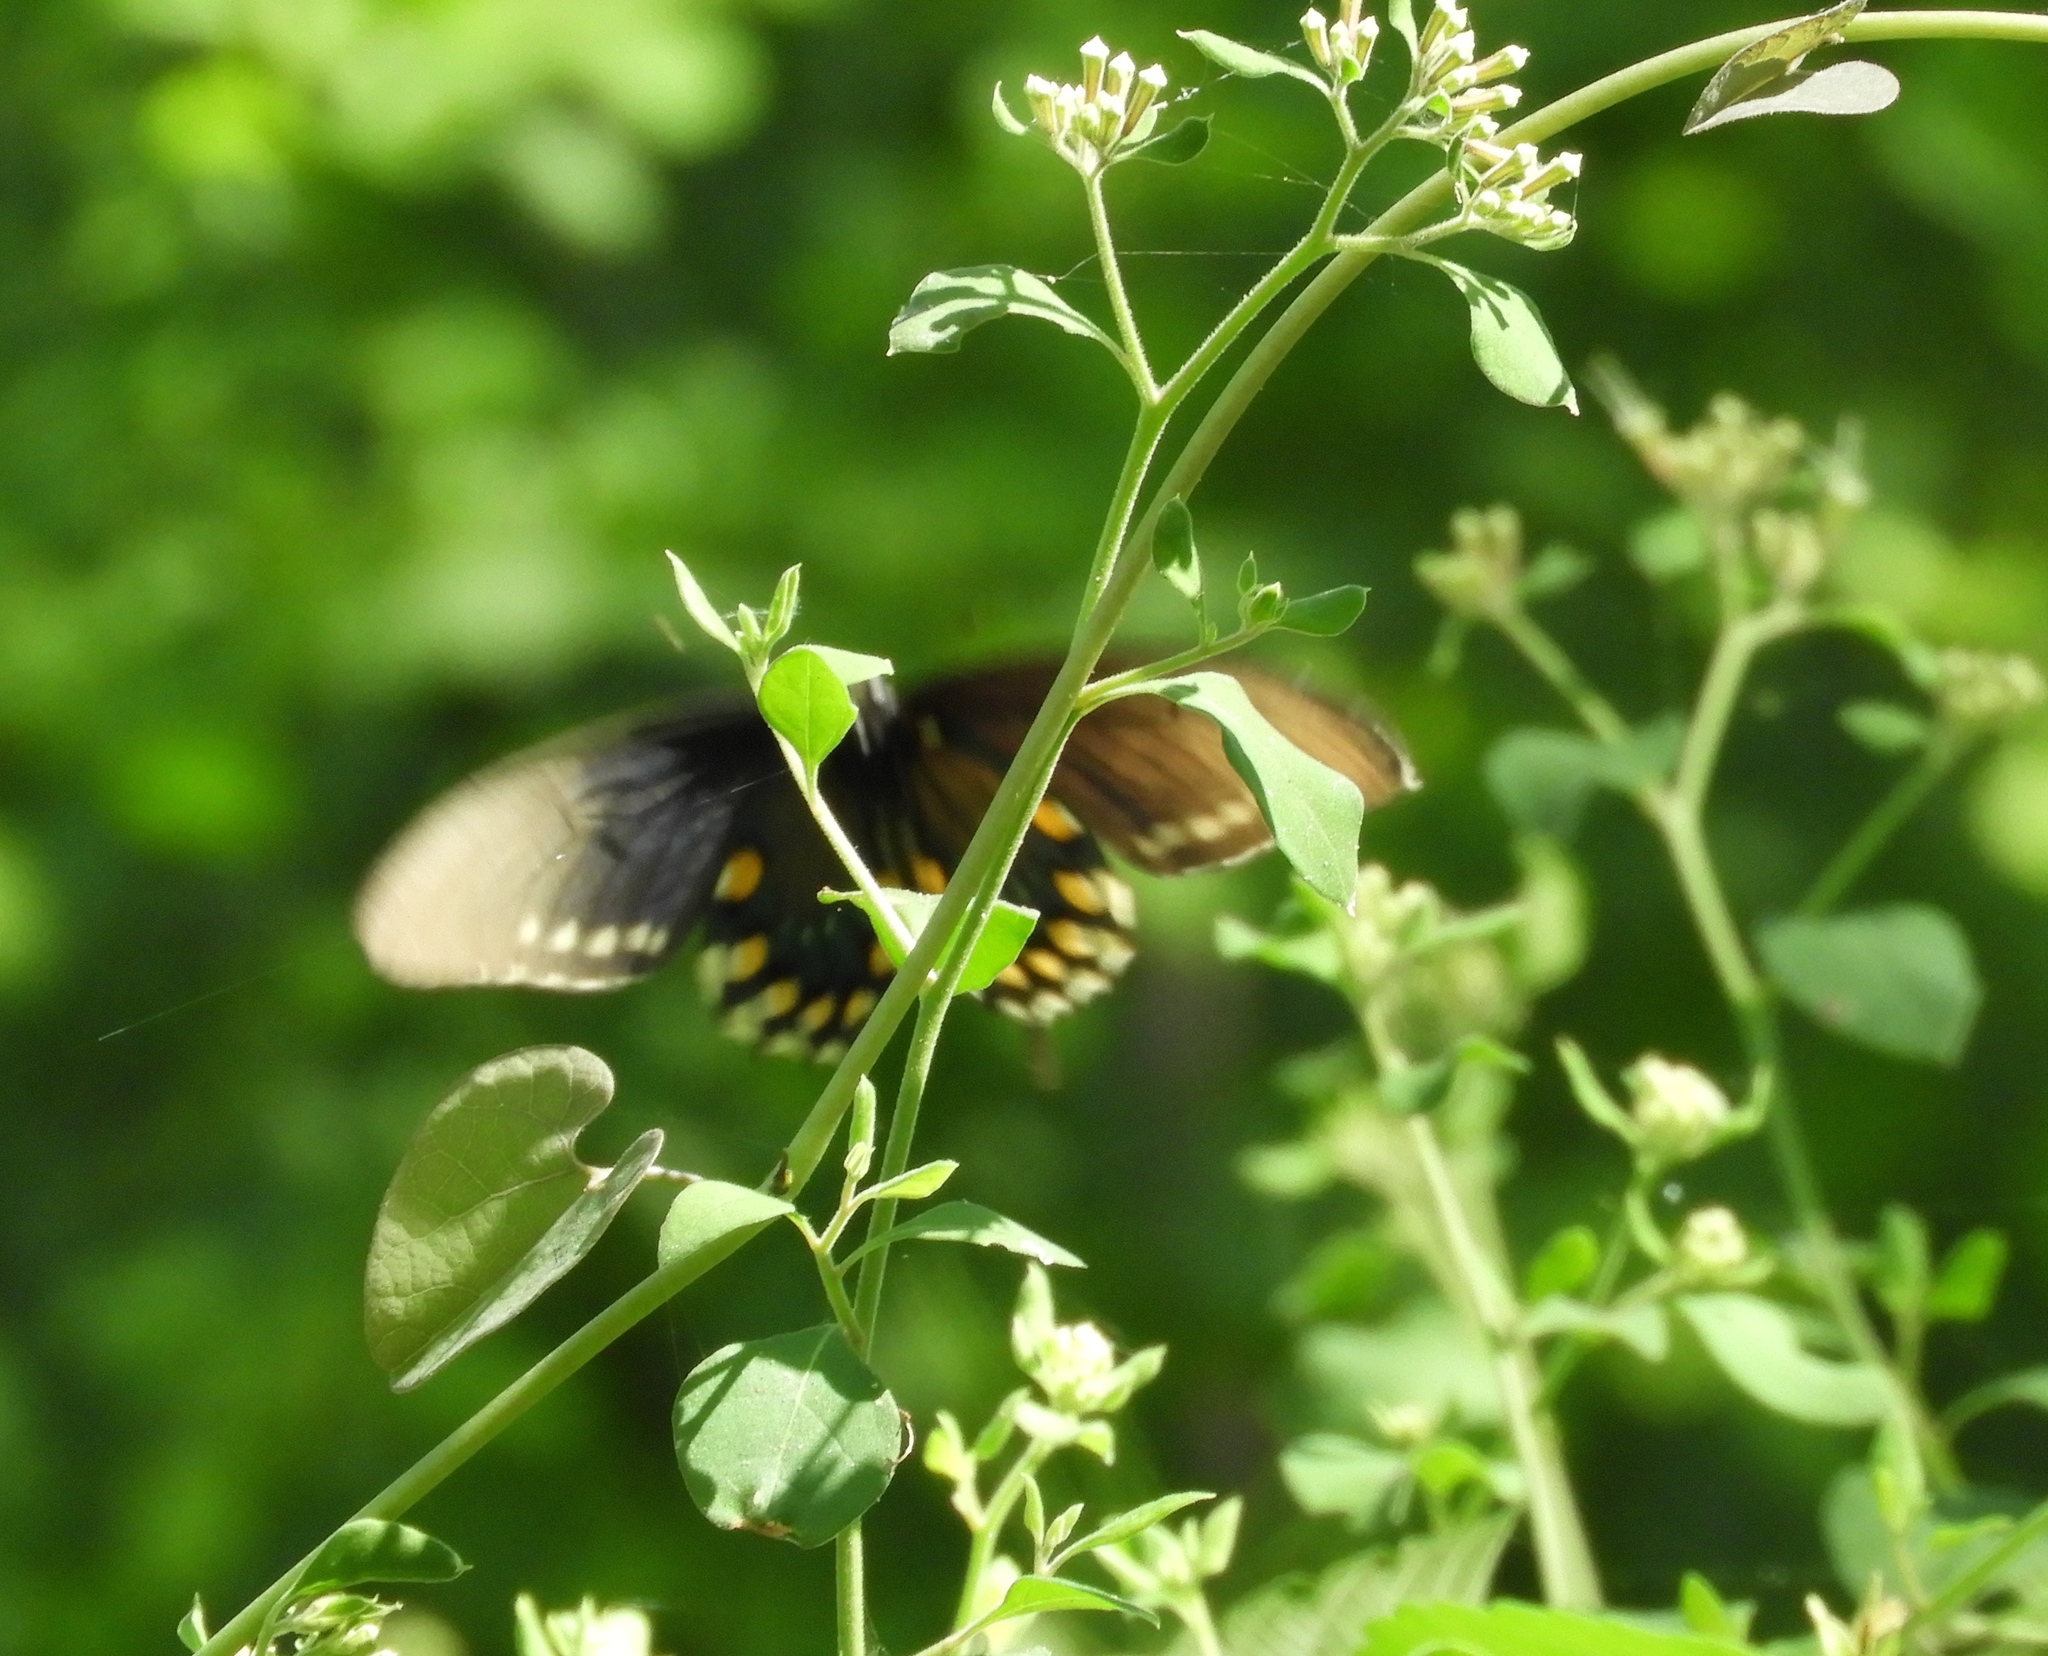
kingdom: Animalia
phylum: Arthropoda
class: Insecta
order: Lepidoptera
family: Papilionidae
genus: Battus
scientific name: Battus philenor
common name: Pipevine swallowtail
